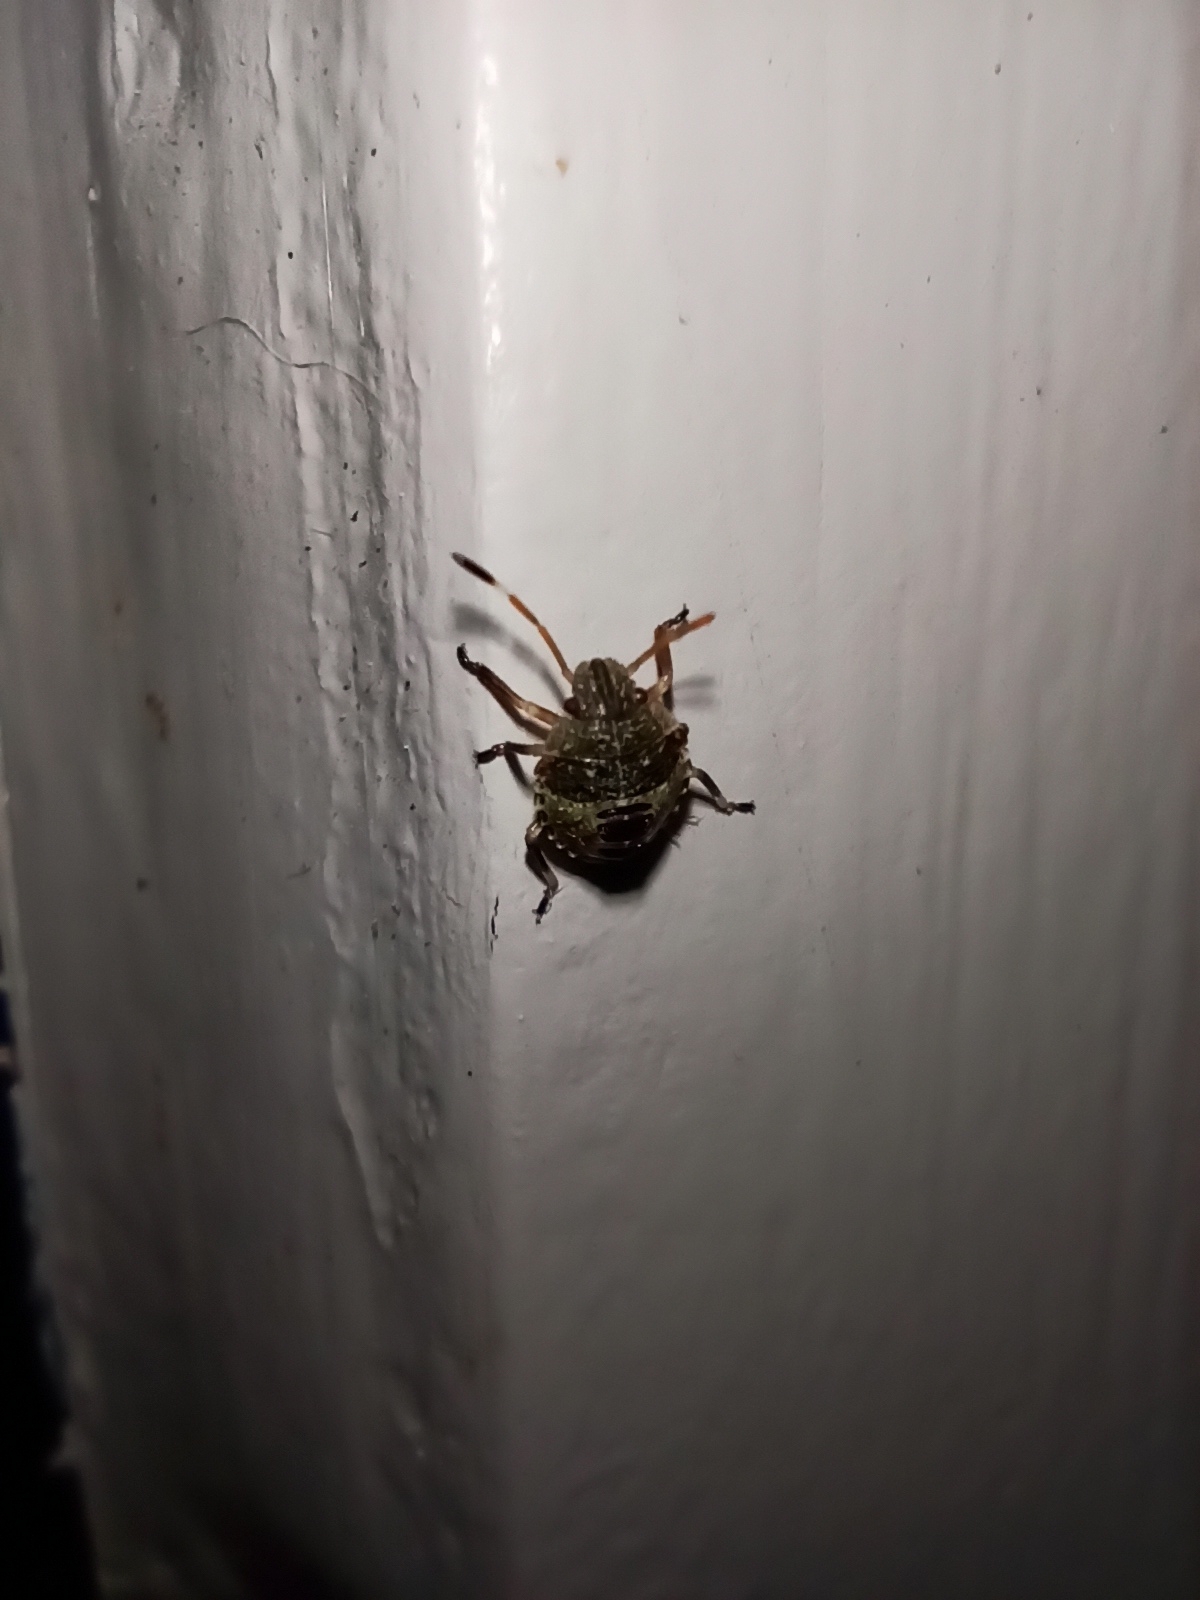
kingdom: Animalia
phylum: Arthropoda
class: Insecta
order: Hemiptera
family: Pentatomidae
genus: Cuspicona
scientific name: Cuspicona simplex
